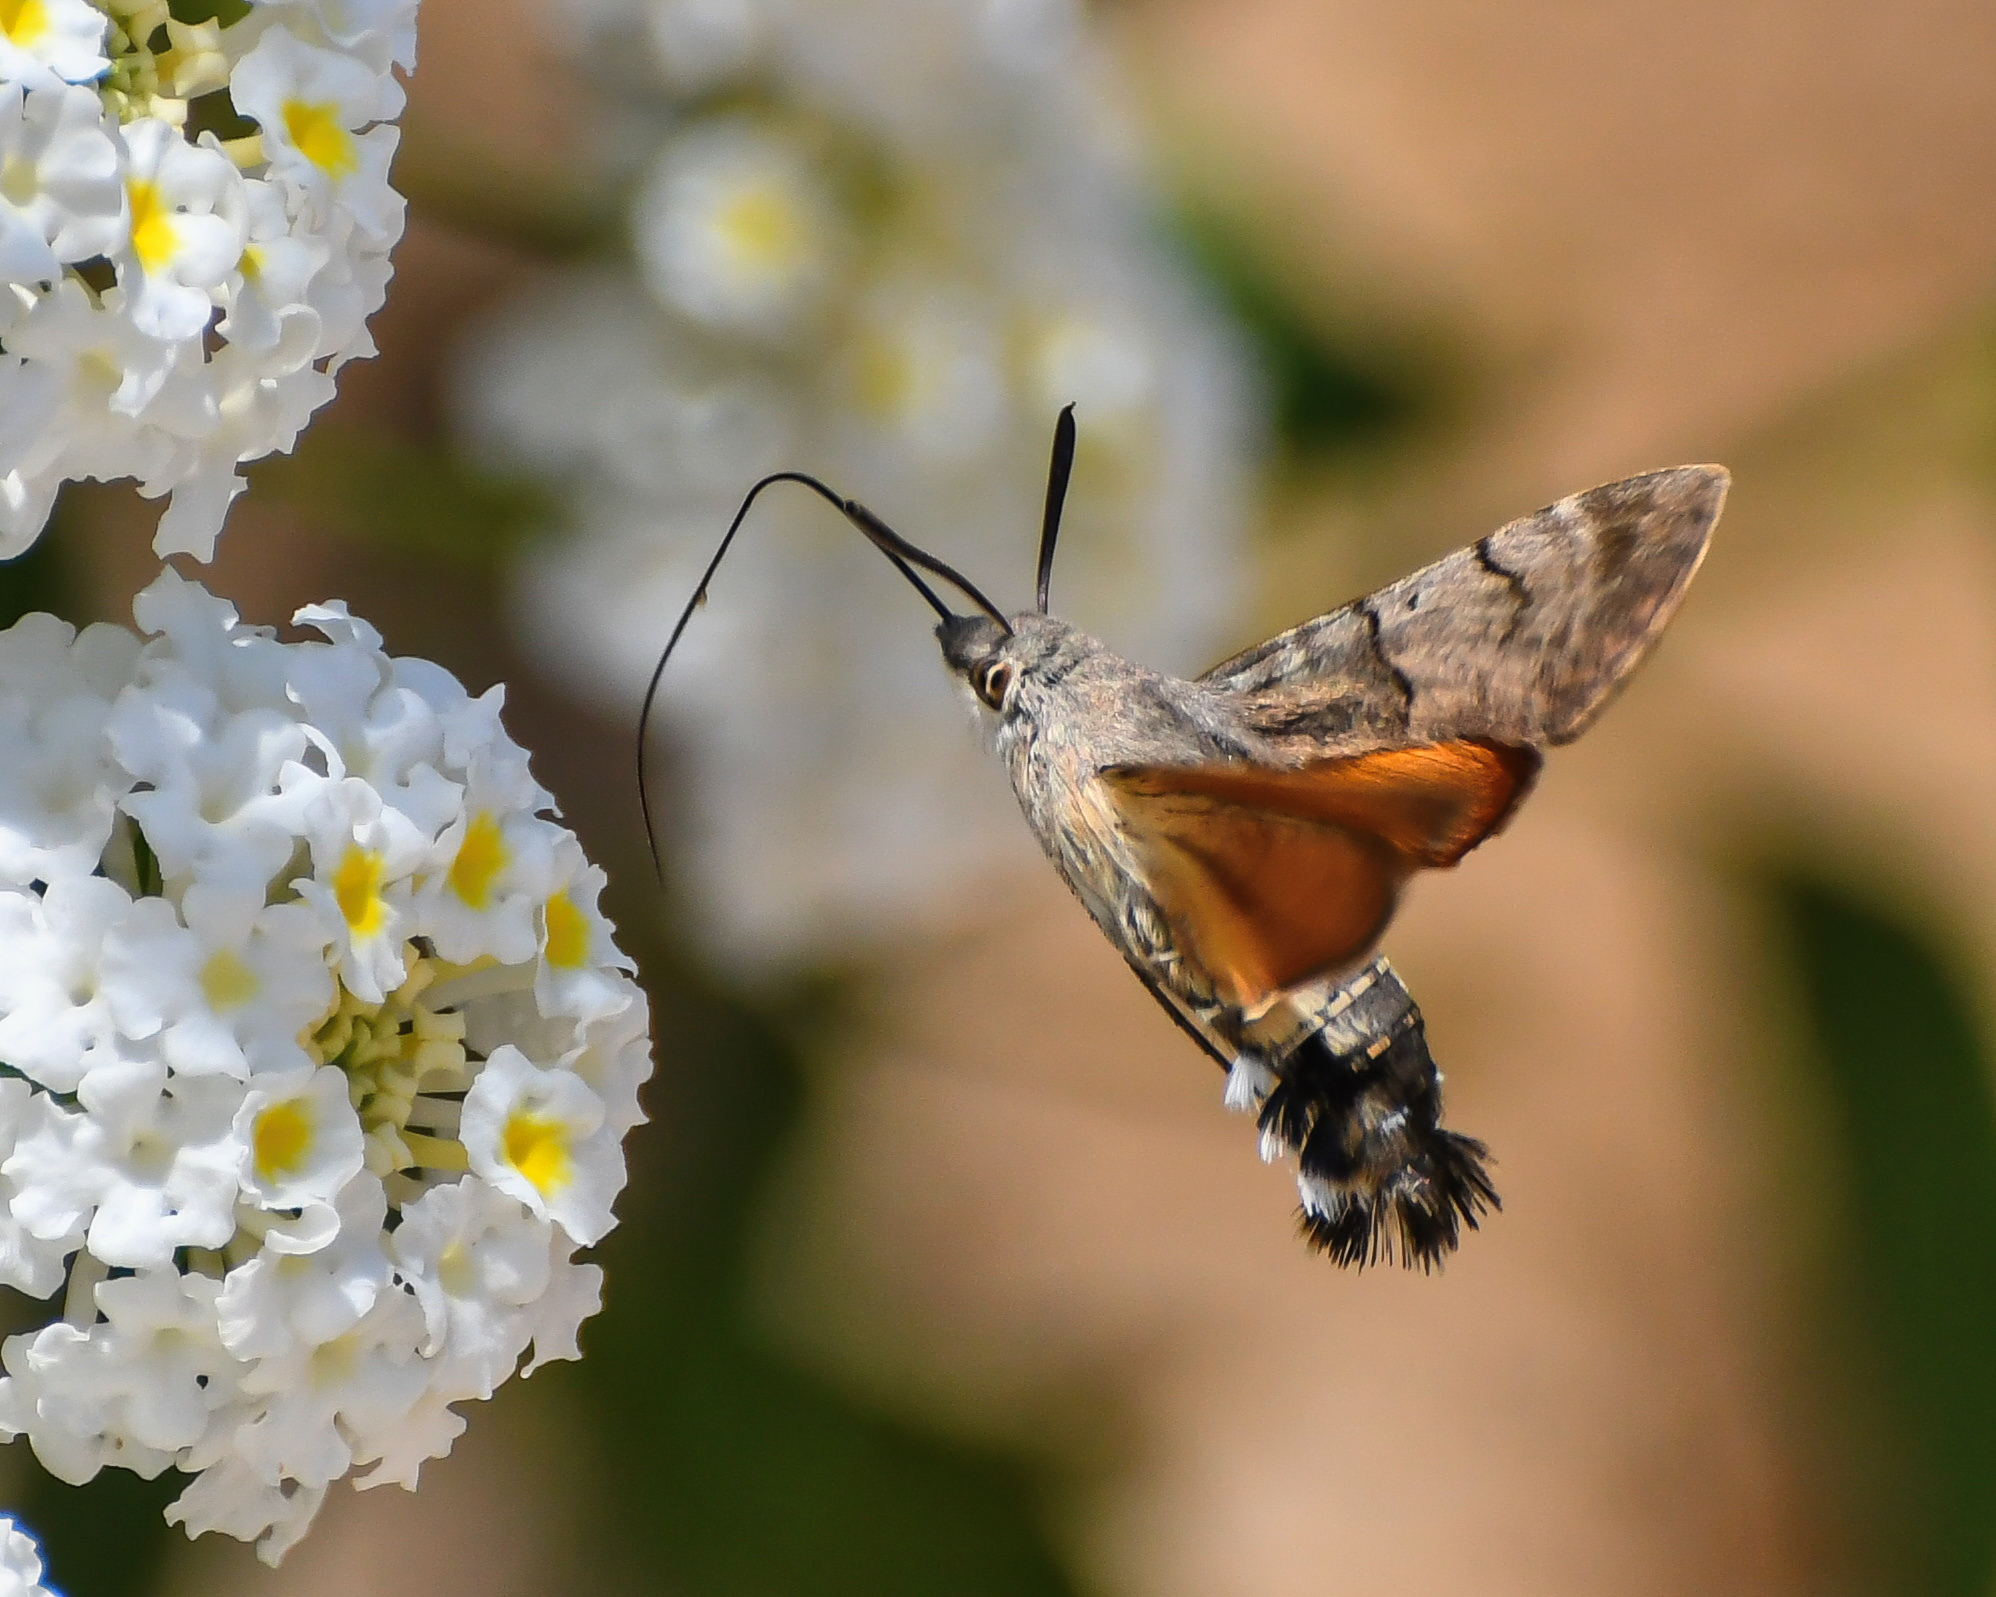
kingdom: Animalia
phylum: Arthropoda
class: Insecta
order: Lepidoptera
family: Sphingidae
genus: Macroglossum
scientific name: Macroglossum stellatarum
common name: Humming-bird hawk-moth
